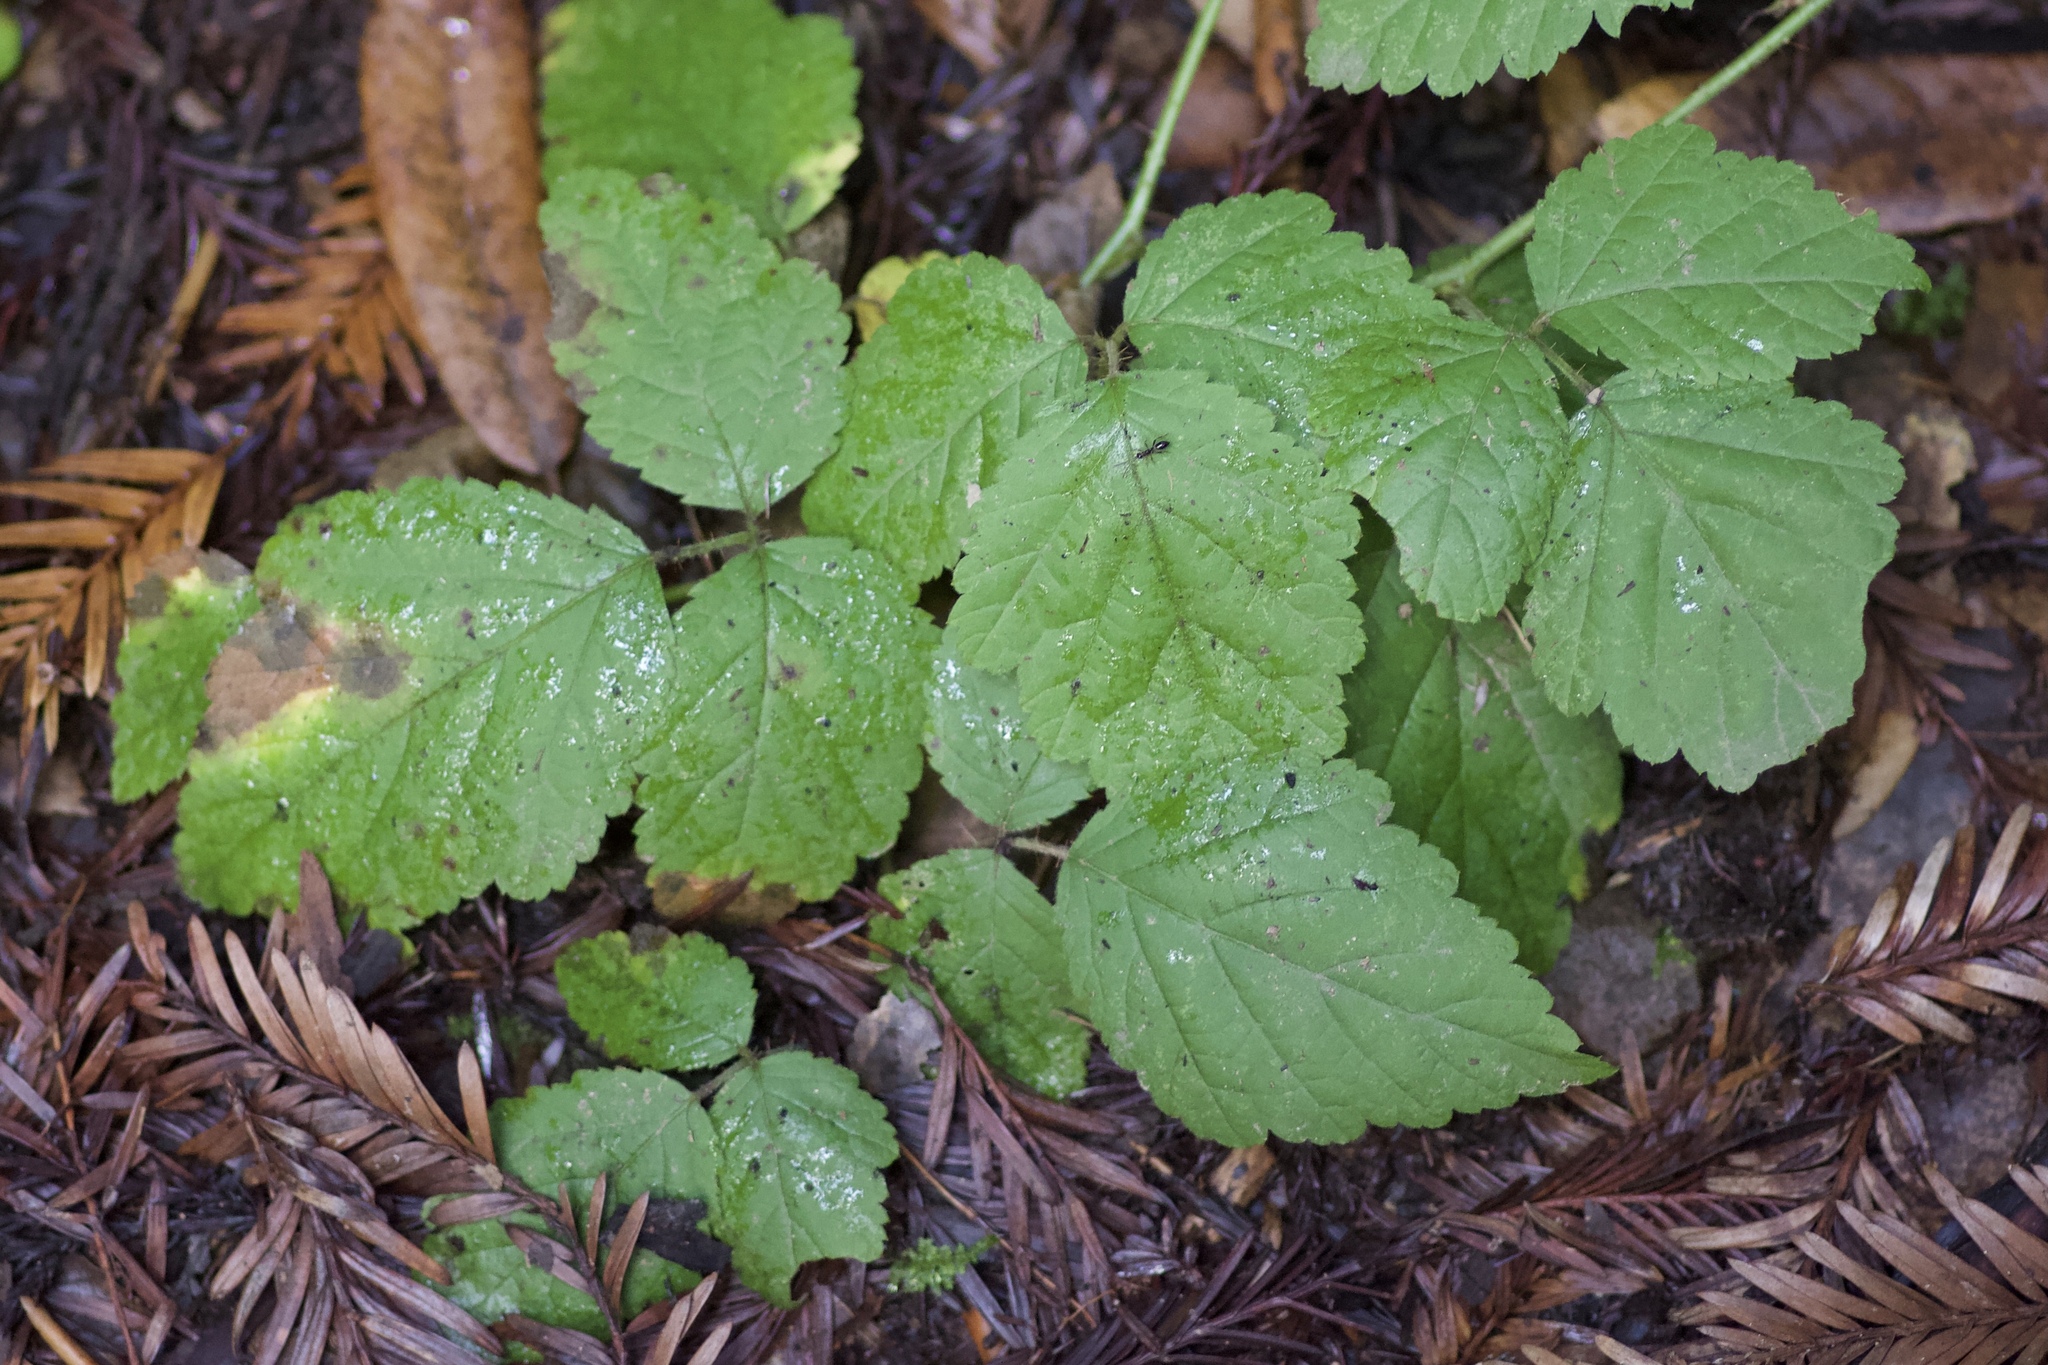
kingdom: Plantae
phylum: Tracheophyta
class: Magnoliopsida
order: Rosales
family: Rosaceae
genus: Rubus
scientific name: Rubus ursinus
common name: Pacific blackberry
